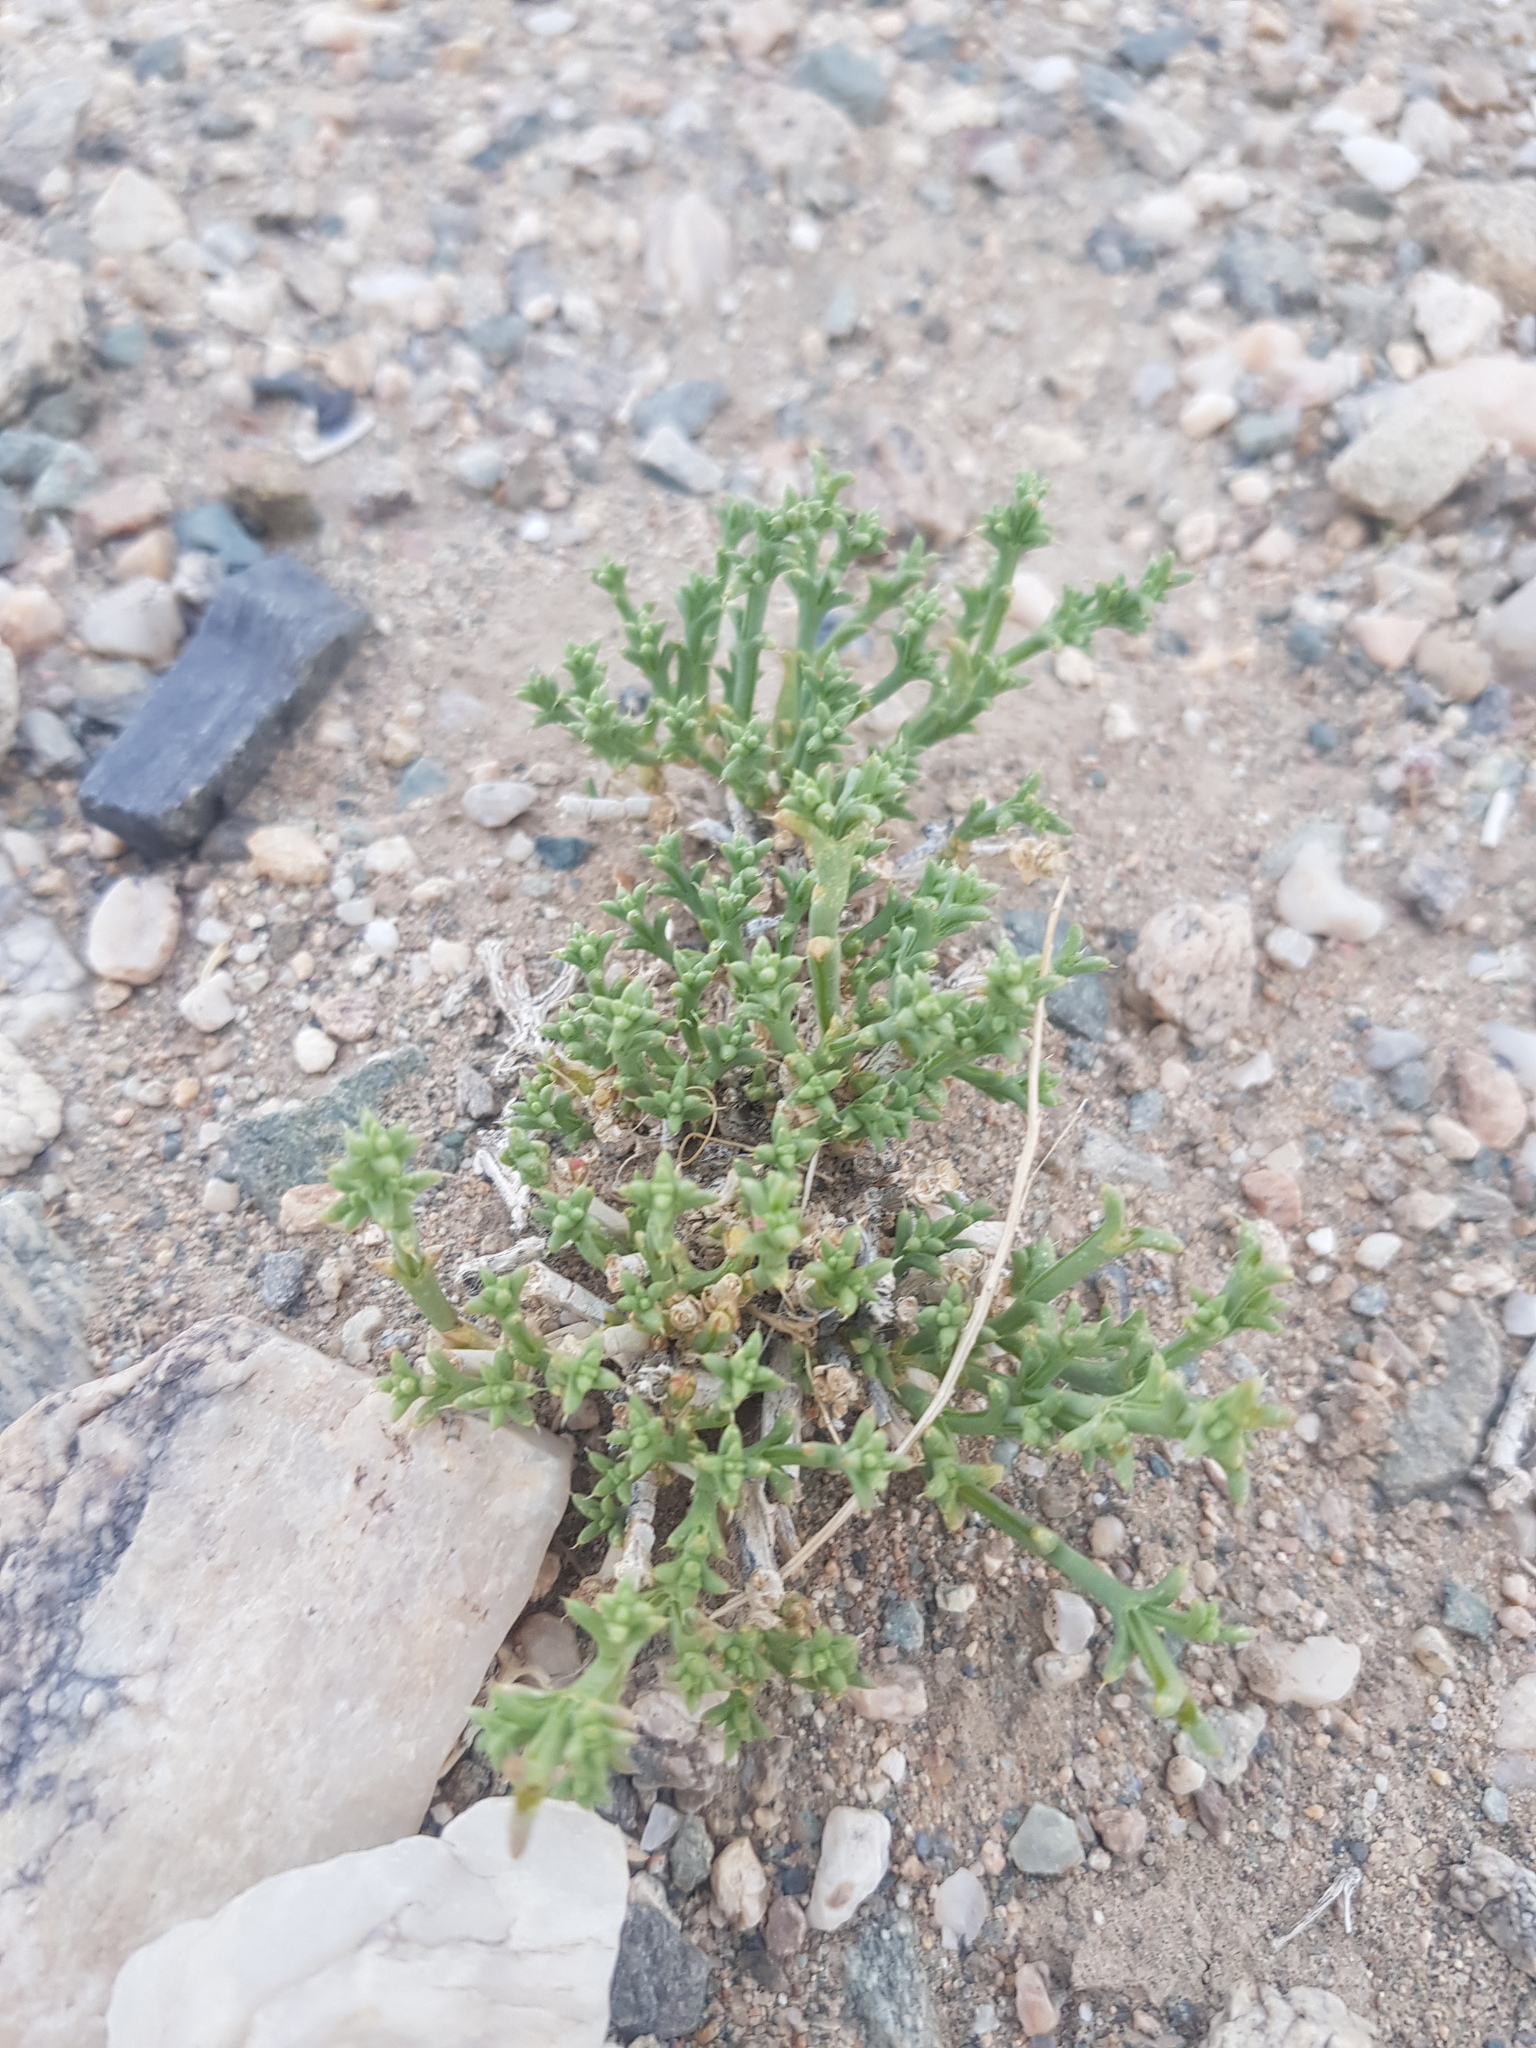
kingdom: Plantae
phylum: Tracheophyta
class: Magnoliopsida
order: Caryophyllales
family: Amaranthaceae
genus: Anabasis
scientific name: Anabasis brevifolia
